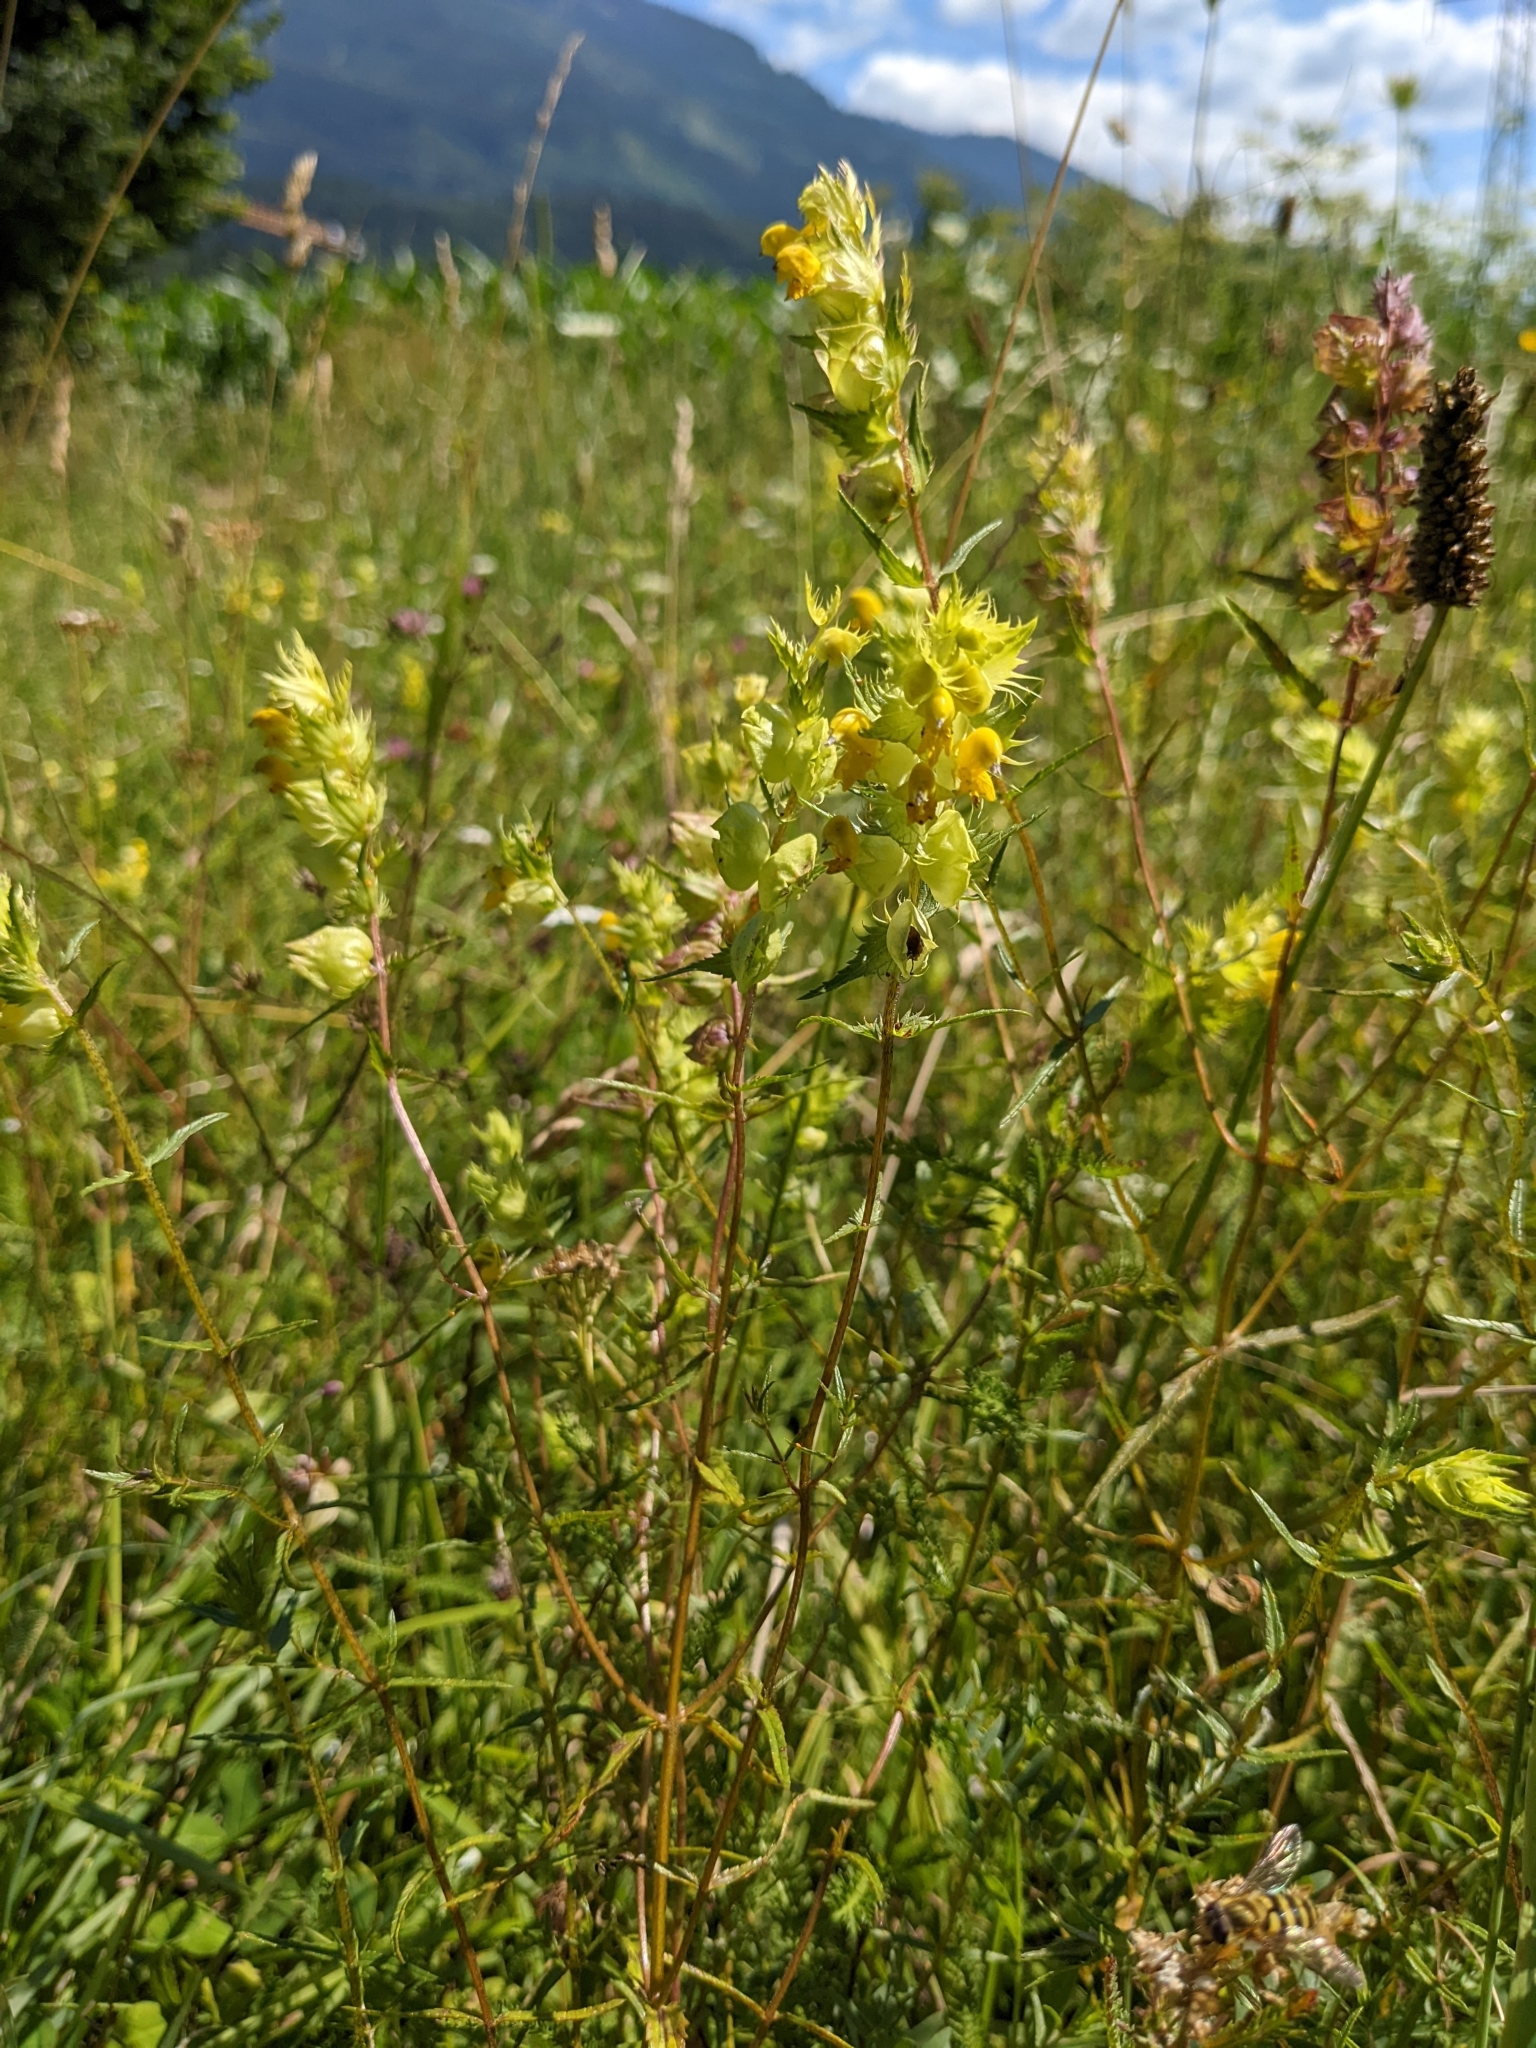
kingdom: Plantae
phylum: Tracheophyta
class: Magnoliopsida
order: Lamiales
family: Orobanchaceae
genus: Rhinanthus
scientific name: Rhinanthus glacialis
